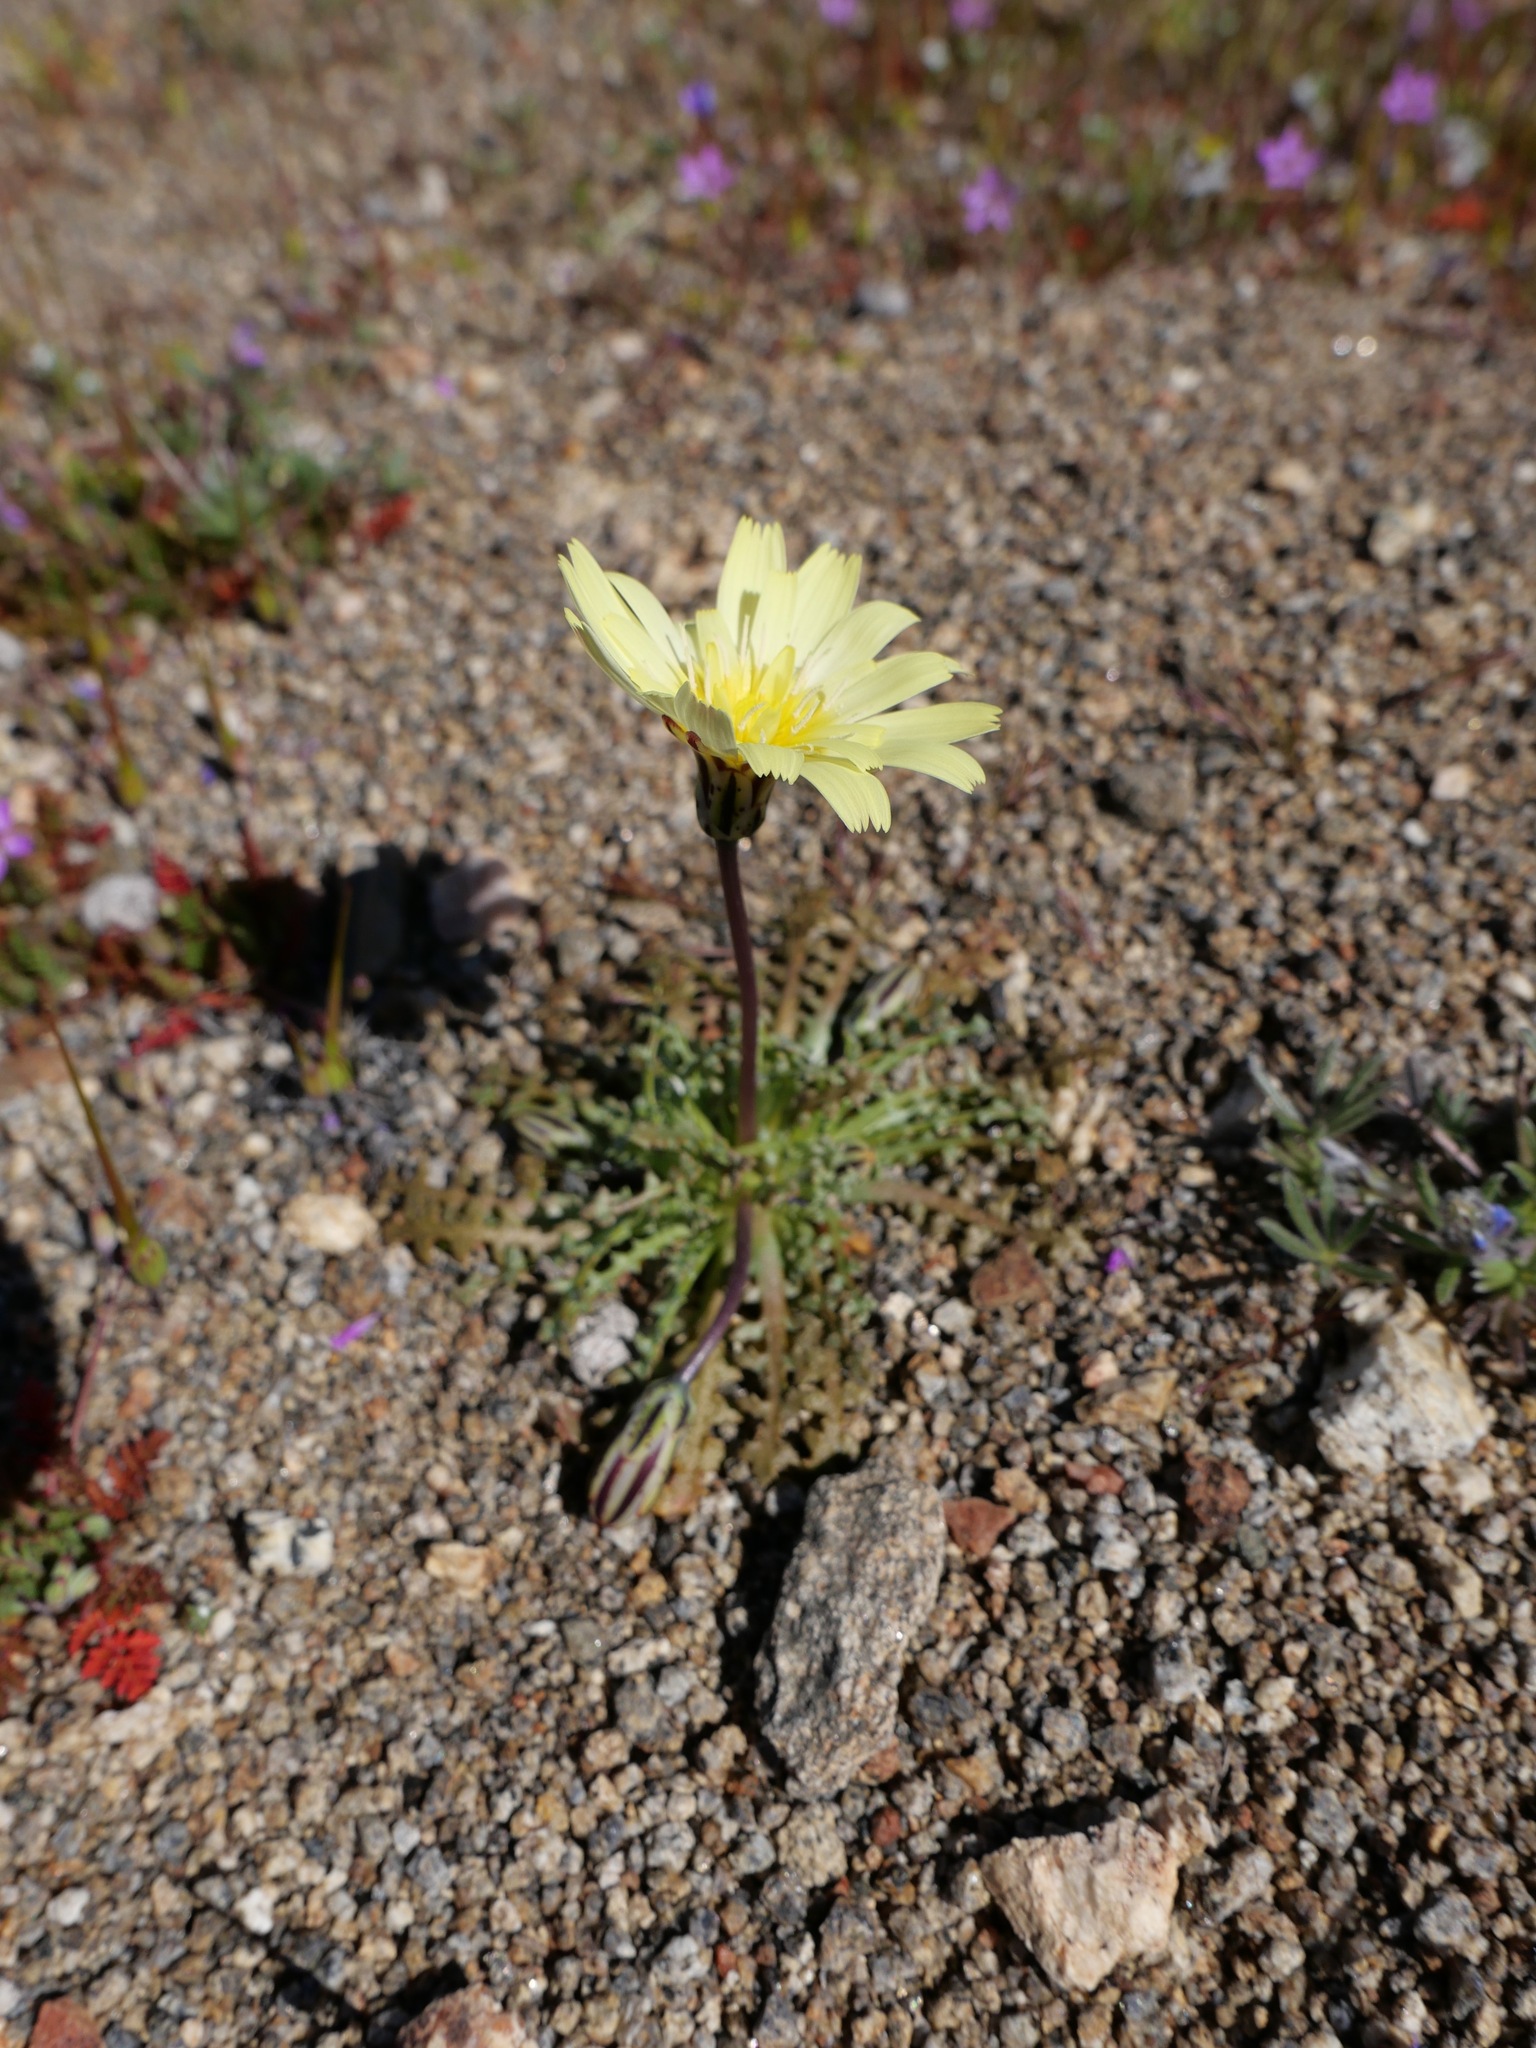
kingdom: Plantae
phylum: Tracheophyta
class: Magnoliopsida
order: Asterales
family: Asteraceae
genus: Anisocoma
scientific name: Anisocoma acaulis
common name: Scalebud
